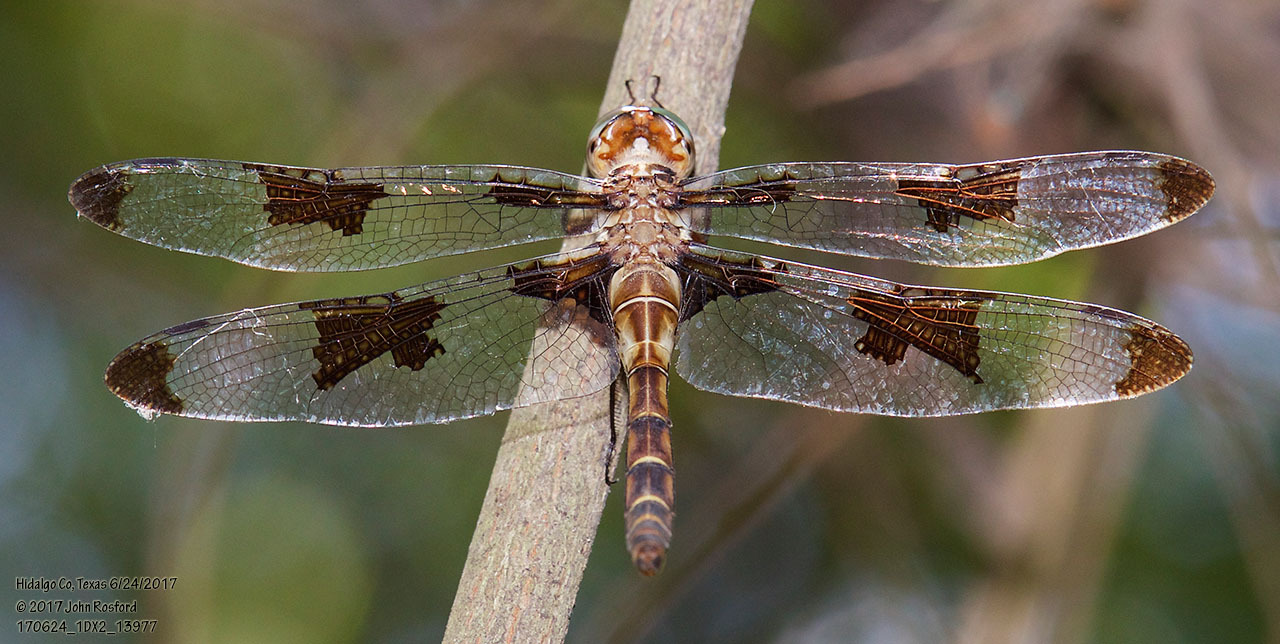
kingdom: Animalia
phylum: Arthropoda
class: Insecta
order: Odonata
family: Corduliidae
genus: Epitheca
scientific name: Epitheca princeps
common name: Prince baskettail
